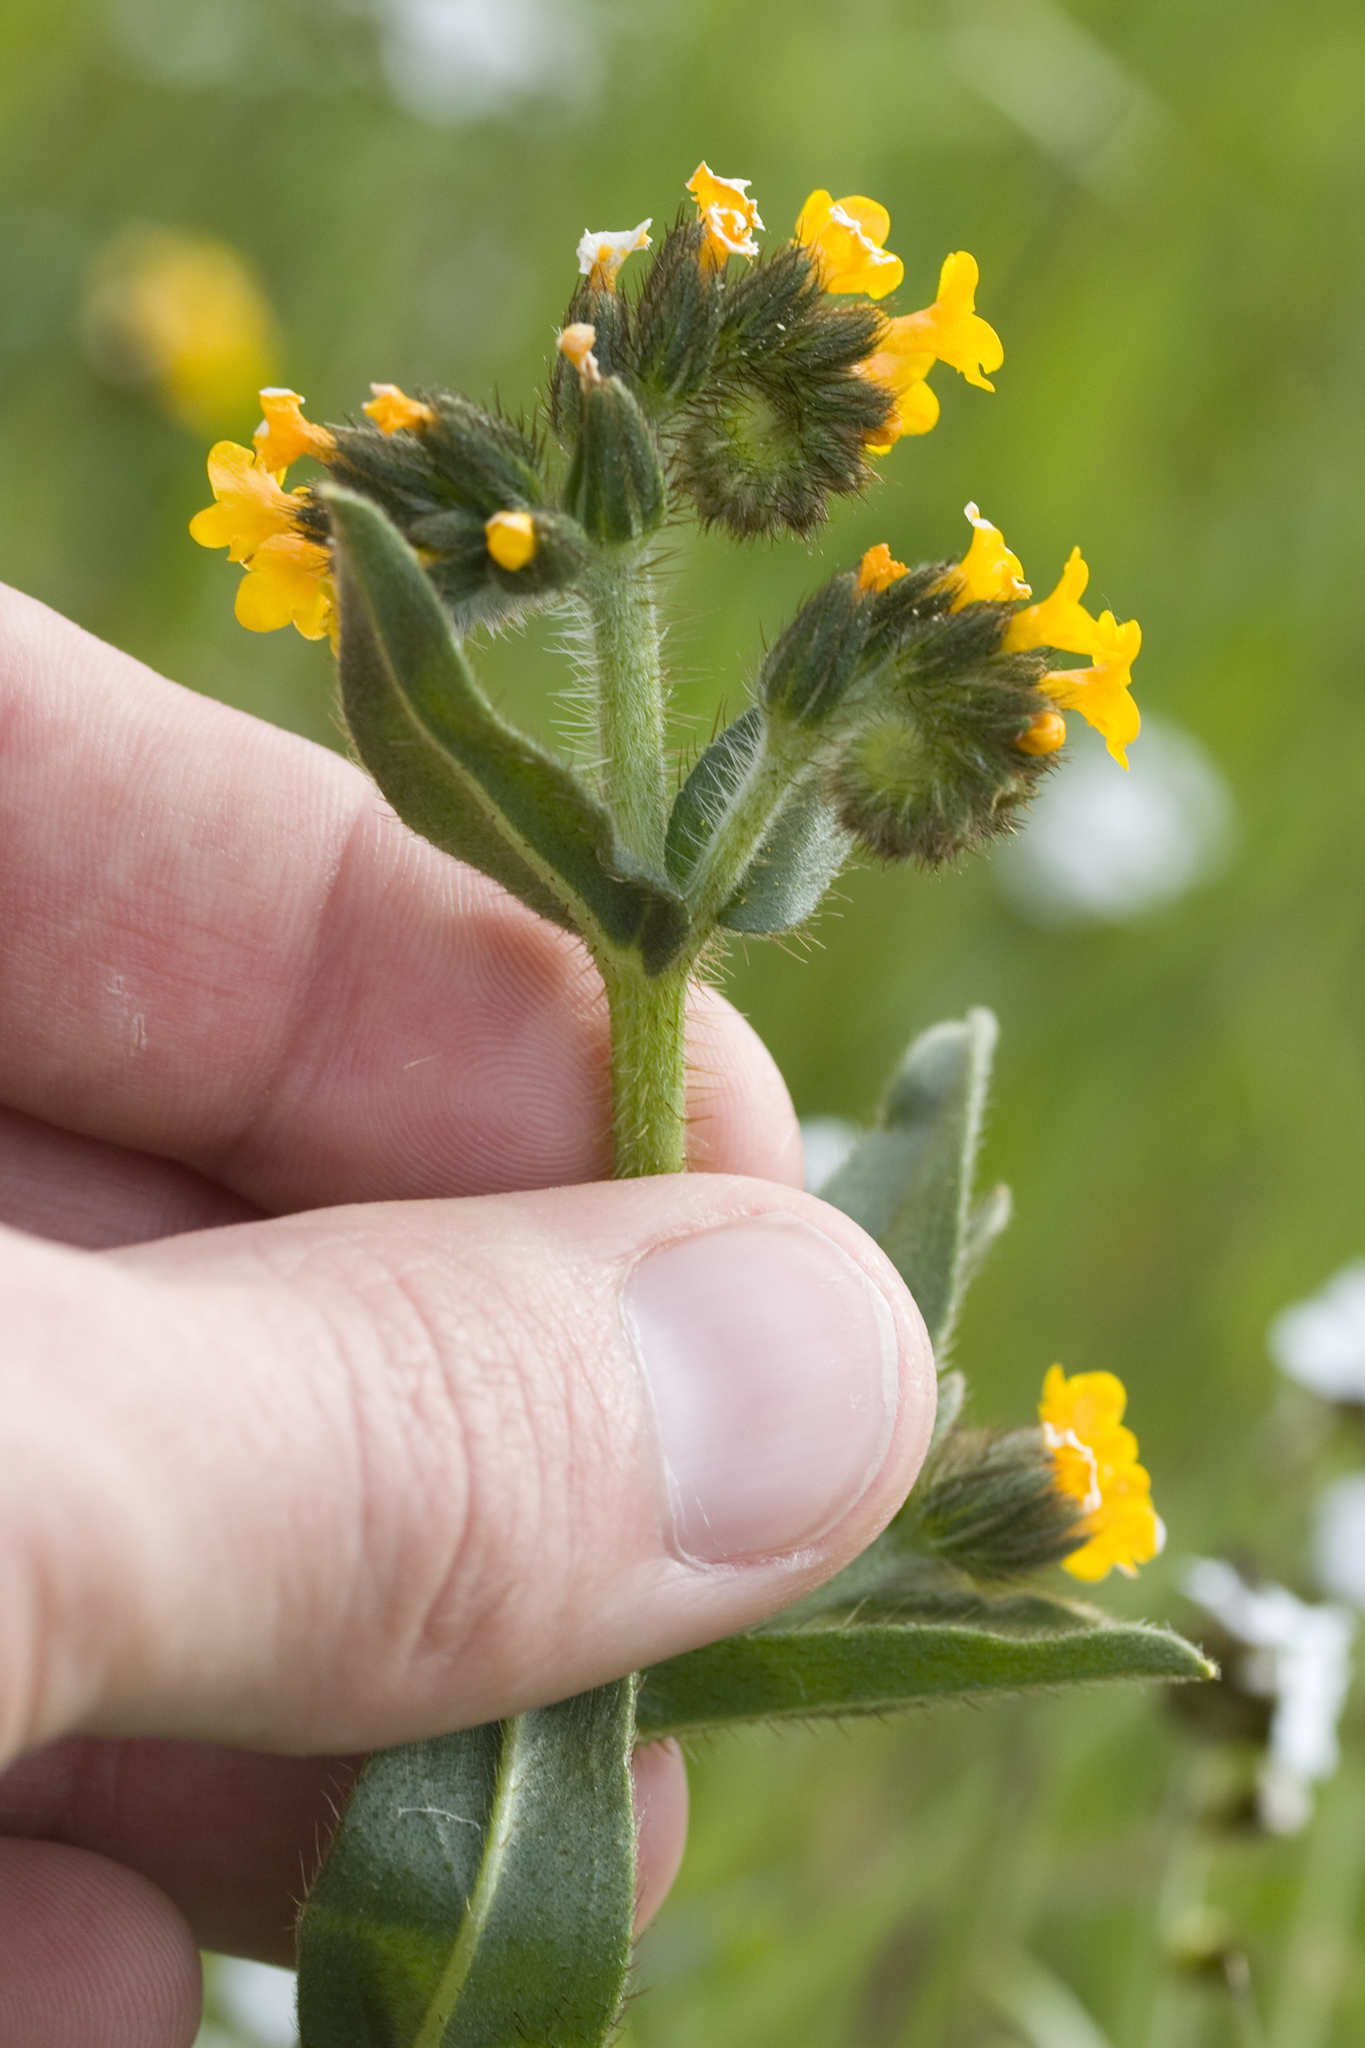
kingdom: Plantae
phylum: Tracheophyta
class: Magnoliopsida
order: Boraginales
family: Boraginaceae
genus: Amsinckia
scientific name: Amsinckia menziesii
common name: Menzies' fiddleneck
